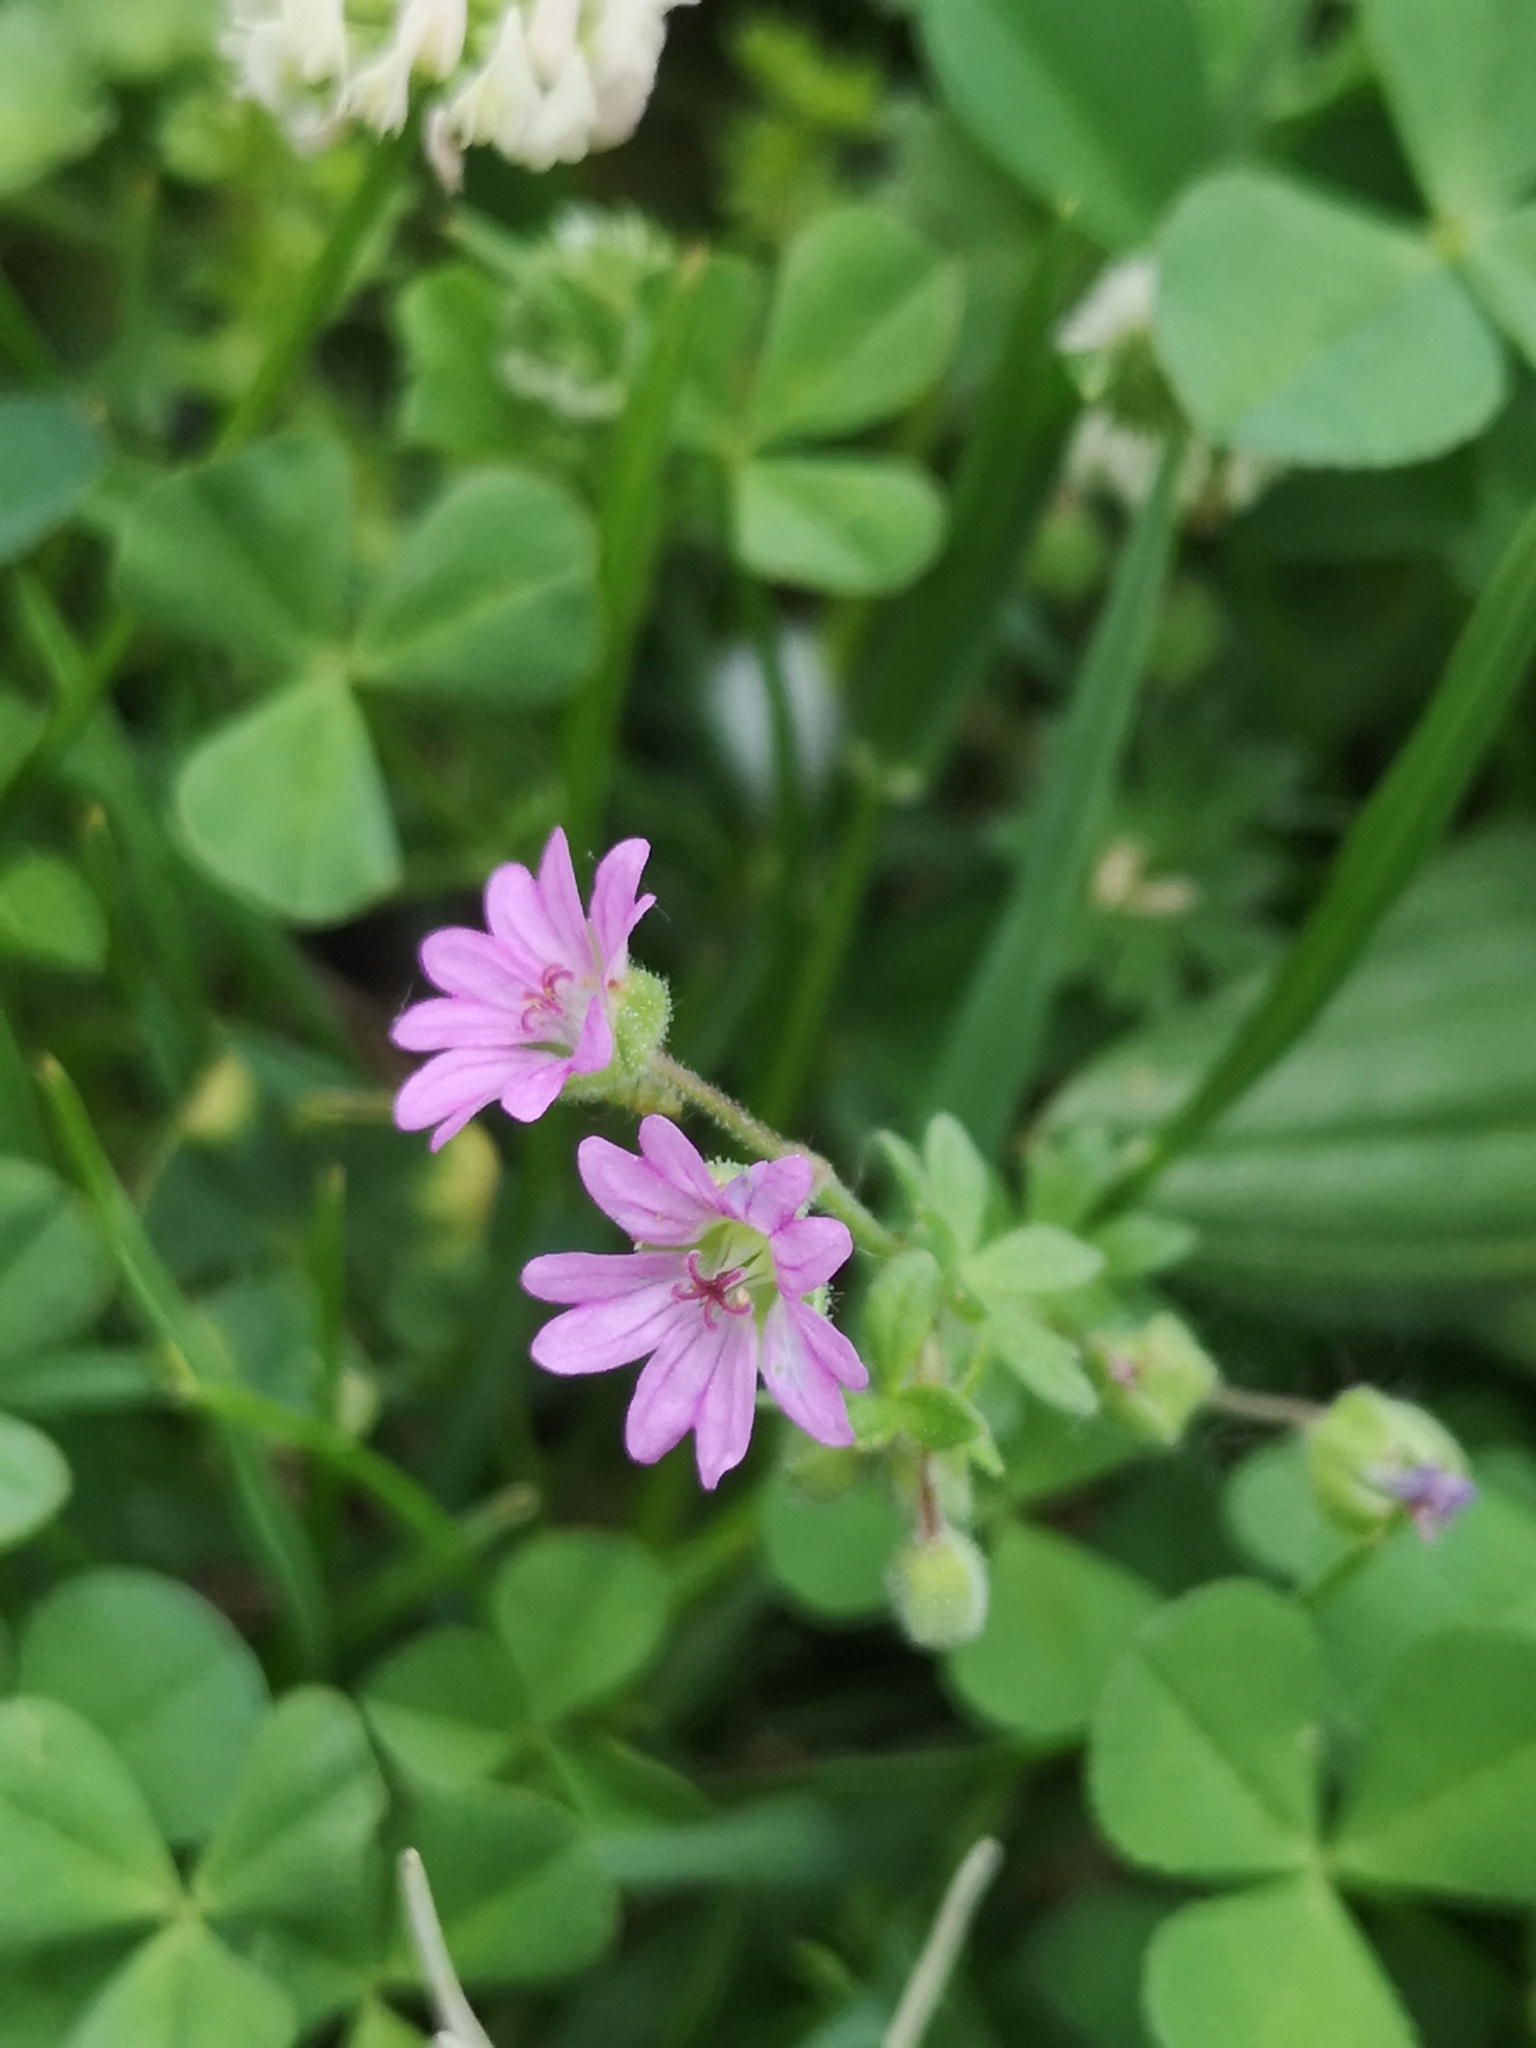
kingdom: Plantae
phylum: Tracheophyta
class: Magnoliopsida
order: Geraniales
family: Geraniaceae
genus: Geranium
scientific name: Geranium molle
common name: Dove's-foot crane's-bill
